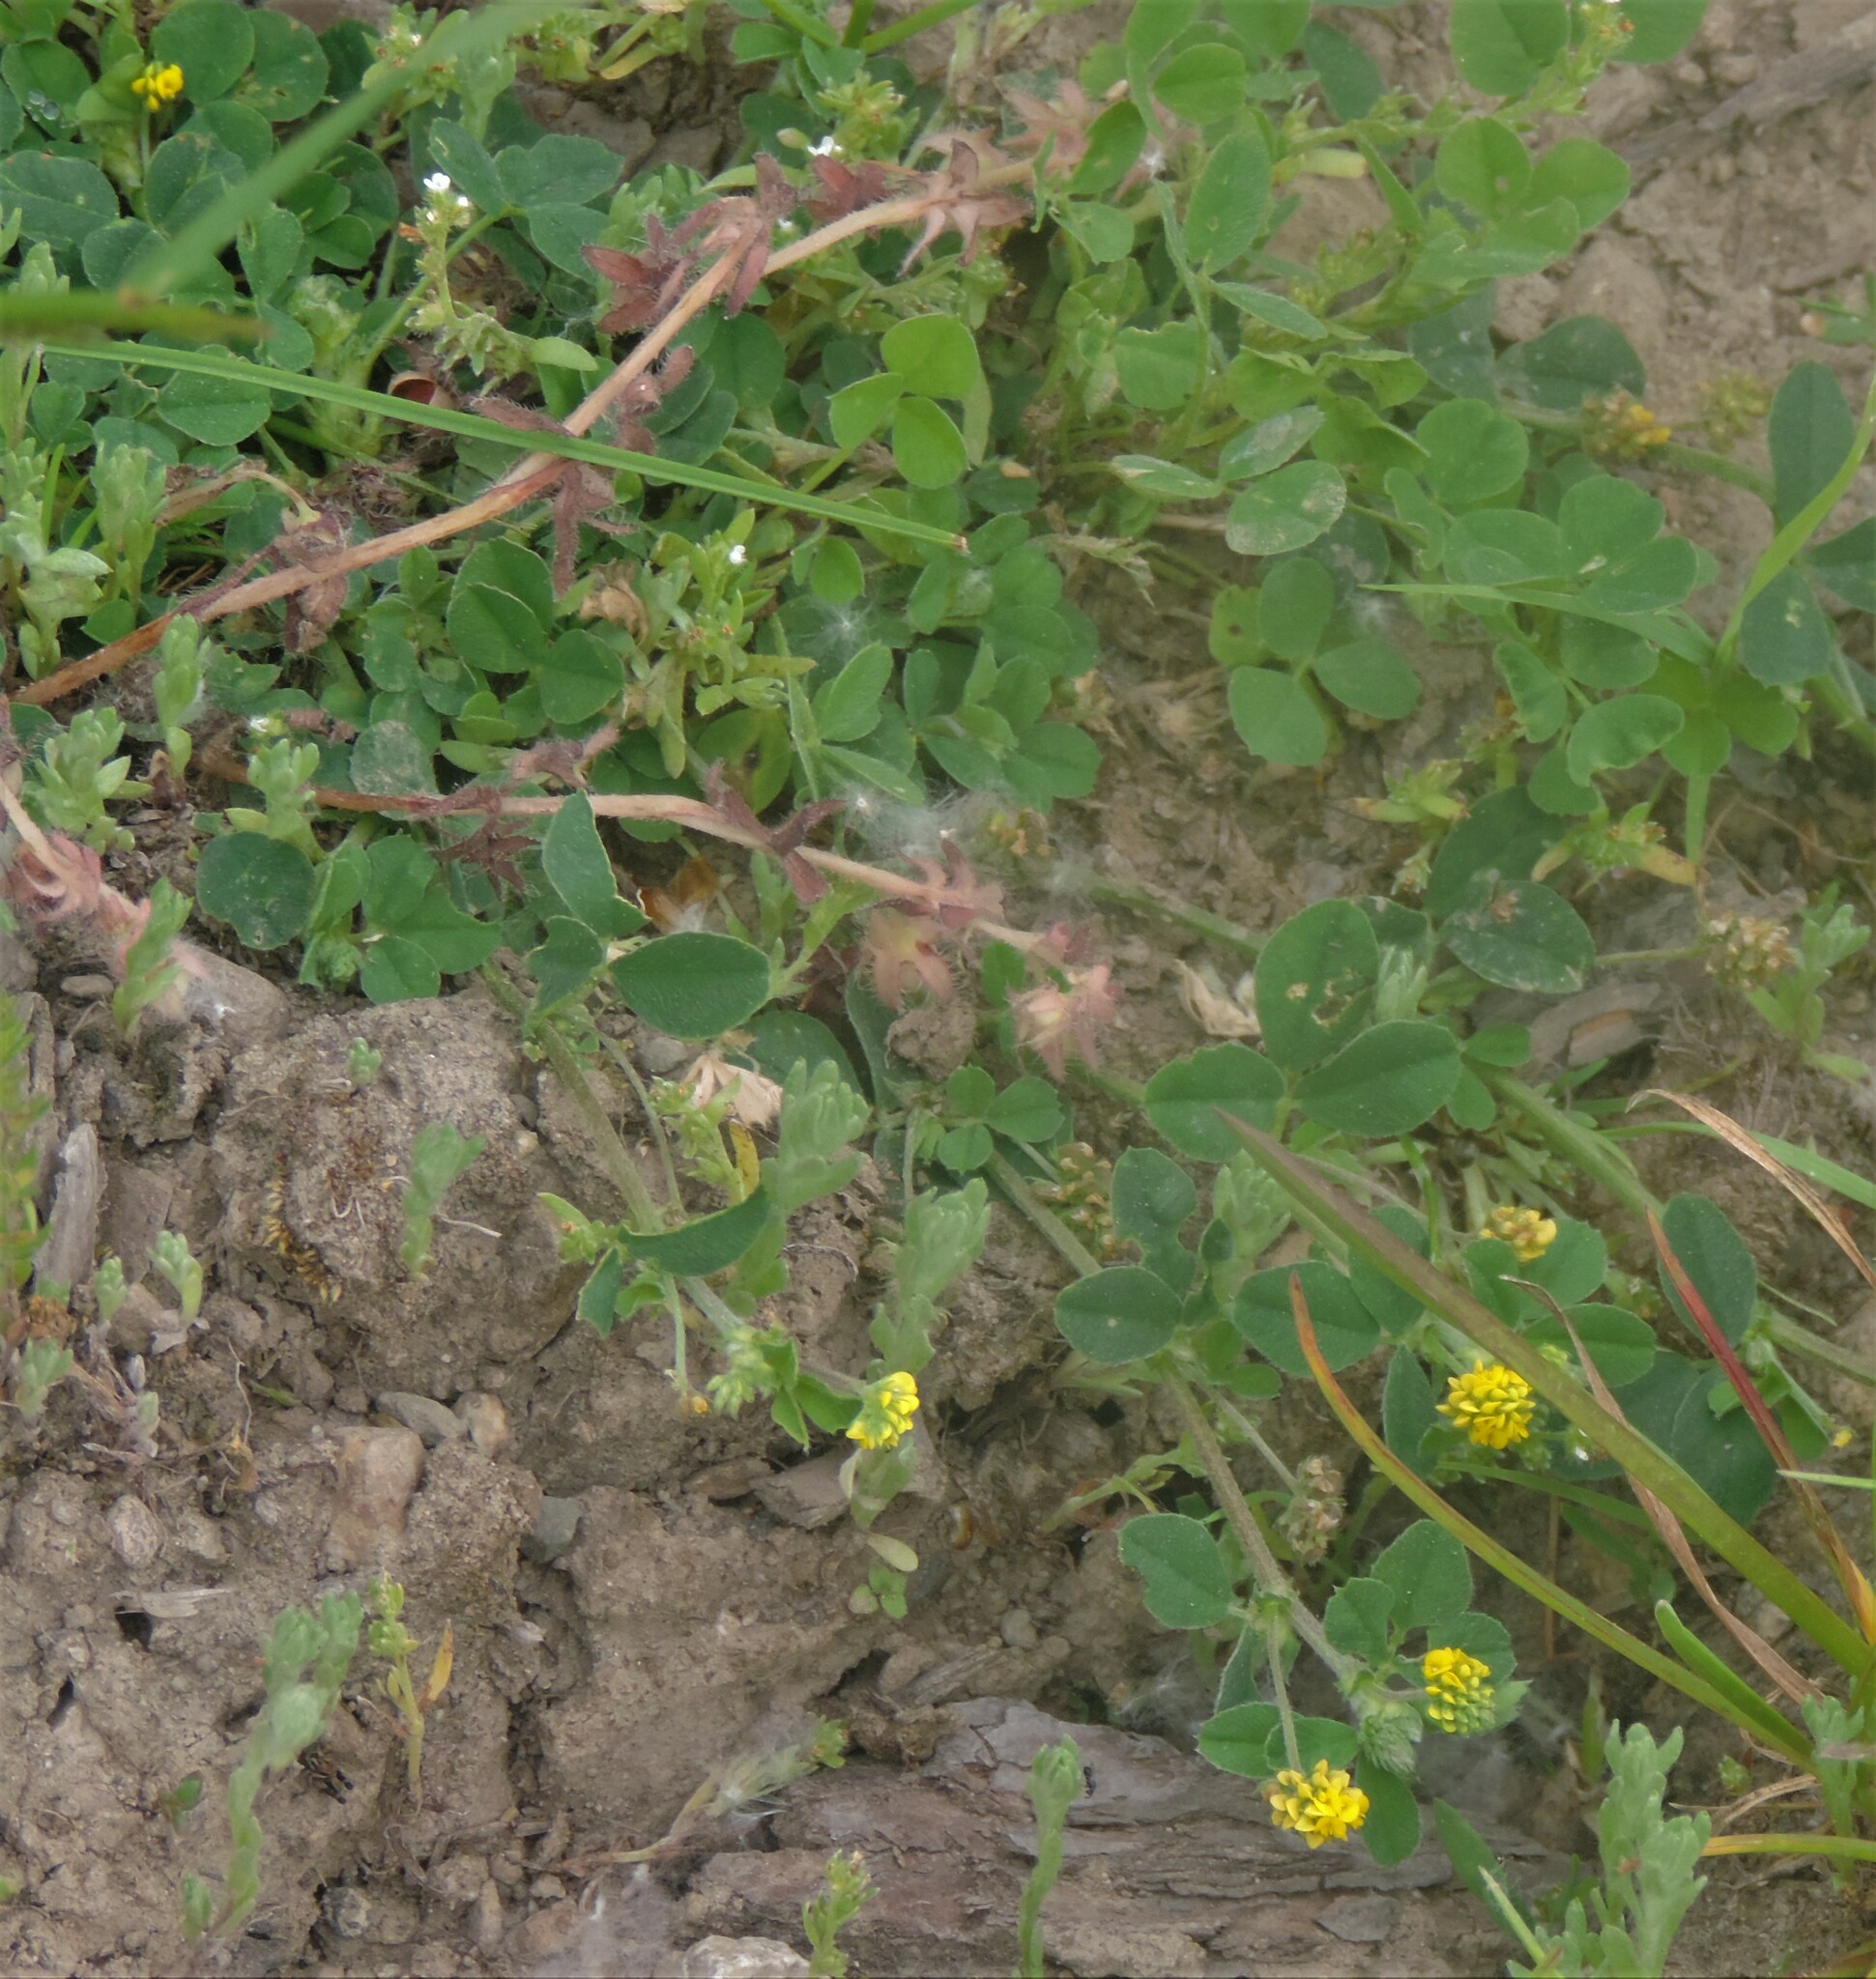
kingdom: Plantae
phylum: Tracheophyta
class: Magnoliopsida
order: Fabales
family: Fabaceae
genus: Medicago
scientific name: Medicago lupulina
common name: Black medick
